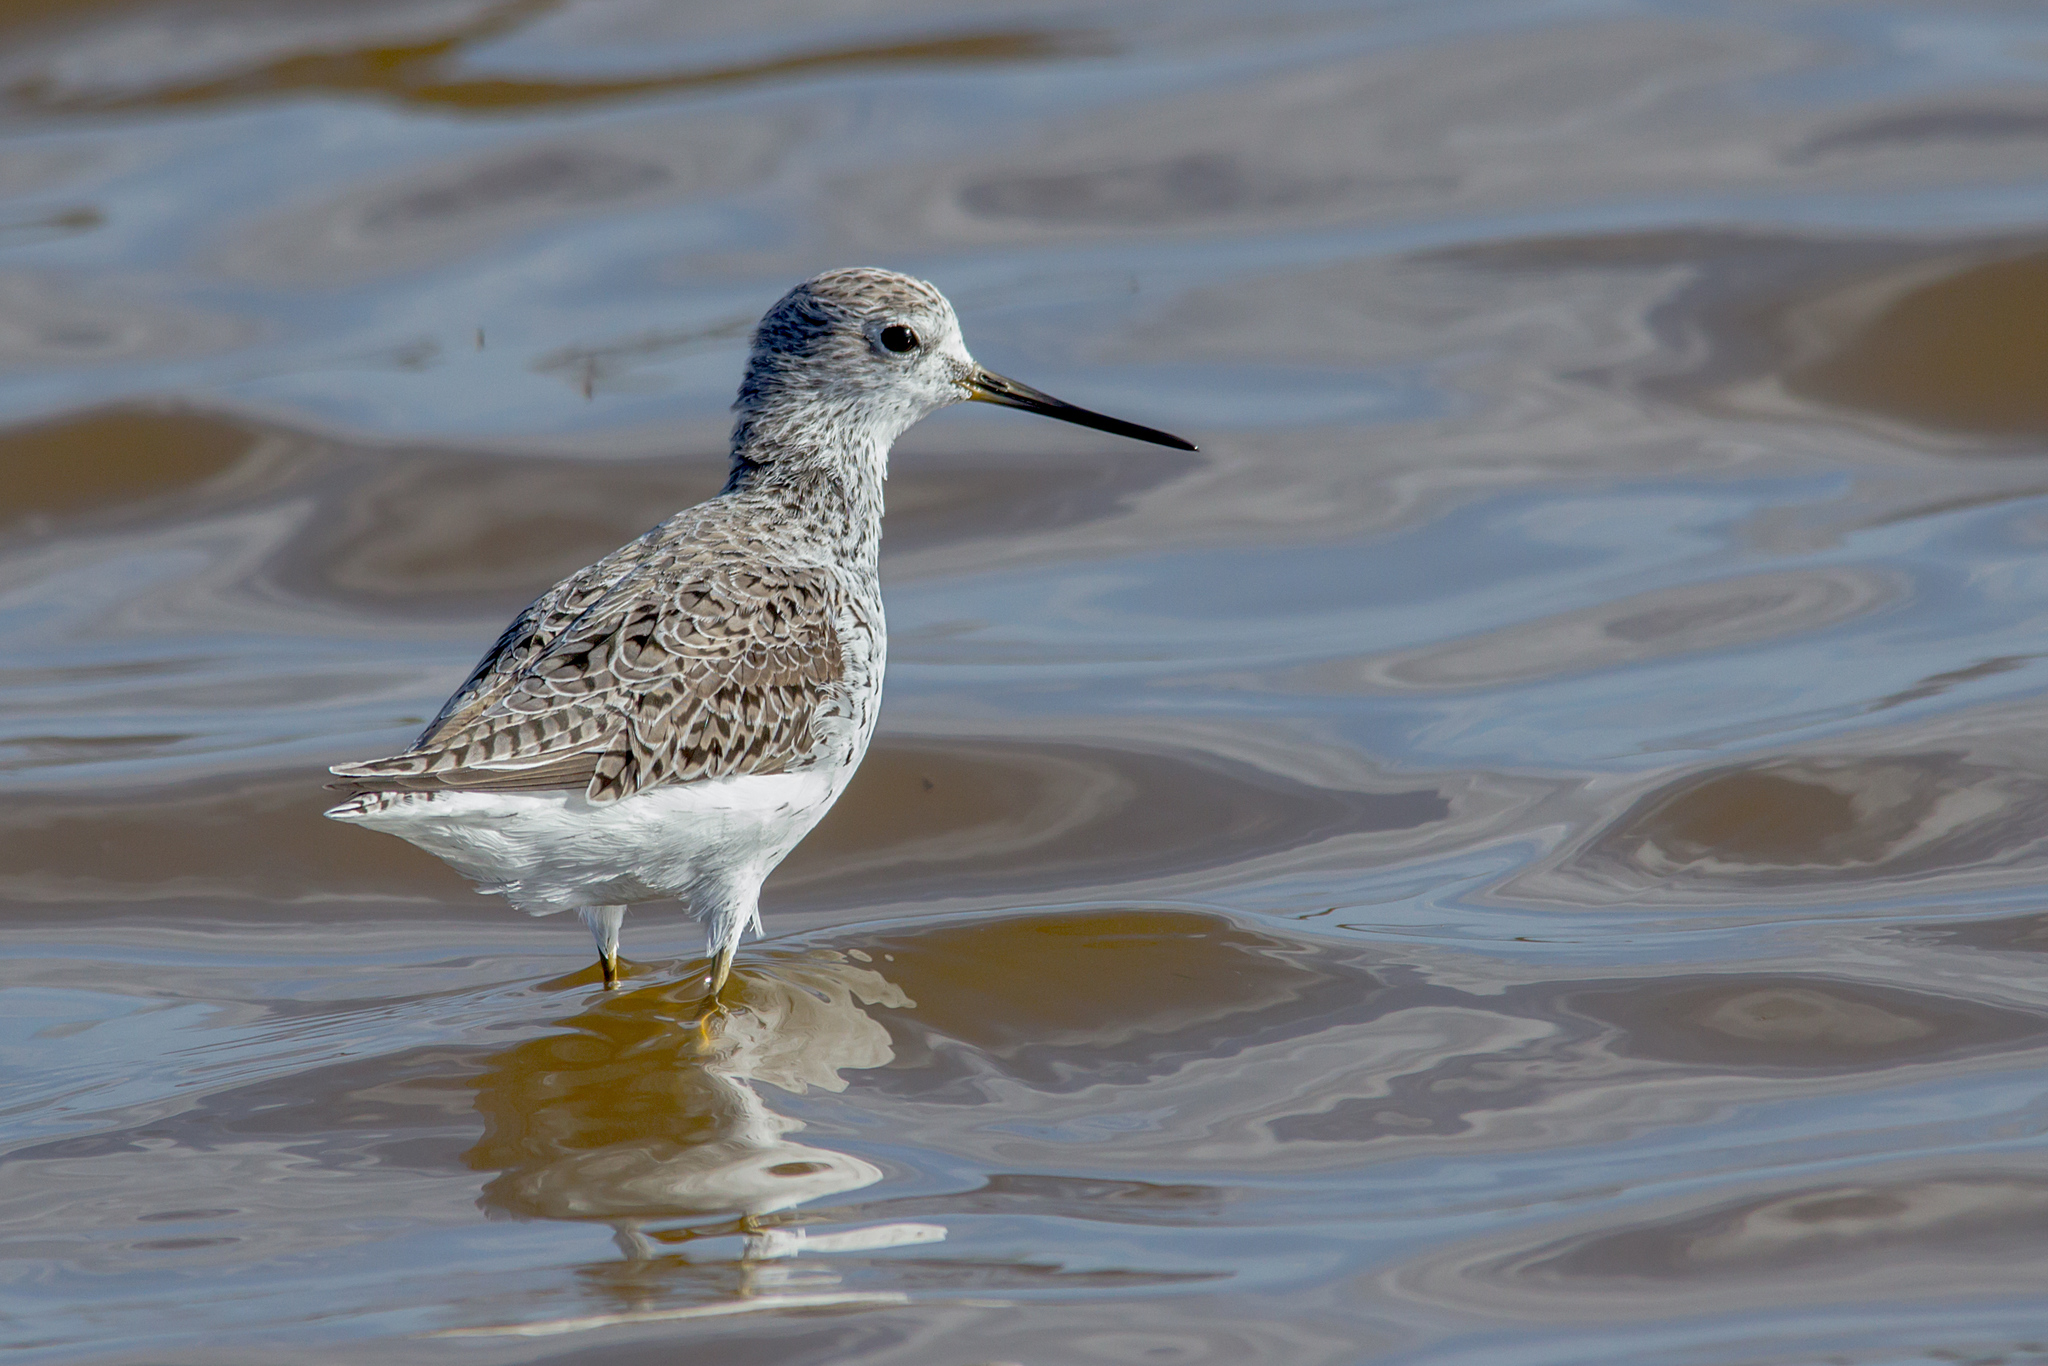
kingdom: Animalia
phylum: Chordata
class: Aves
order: Charadriiformes
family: Scolopacidae
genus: Tringa
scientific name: Tringa stagnatilis
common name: Marsh sandpiper
